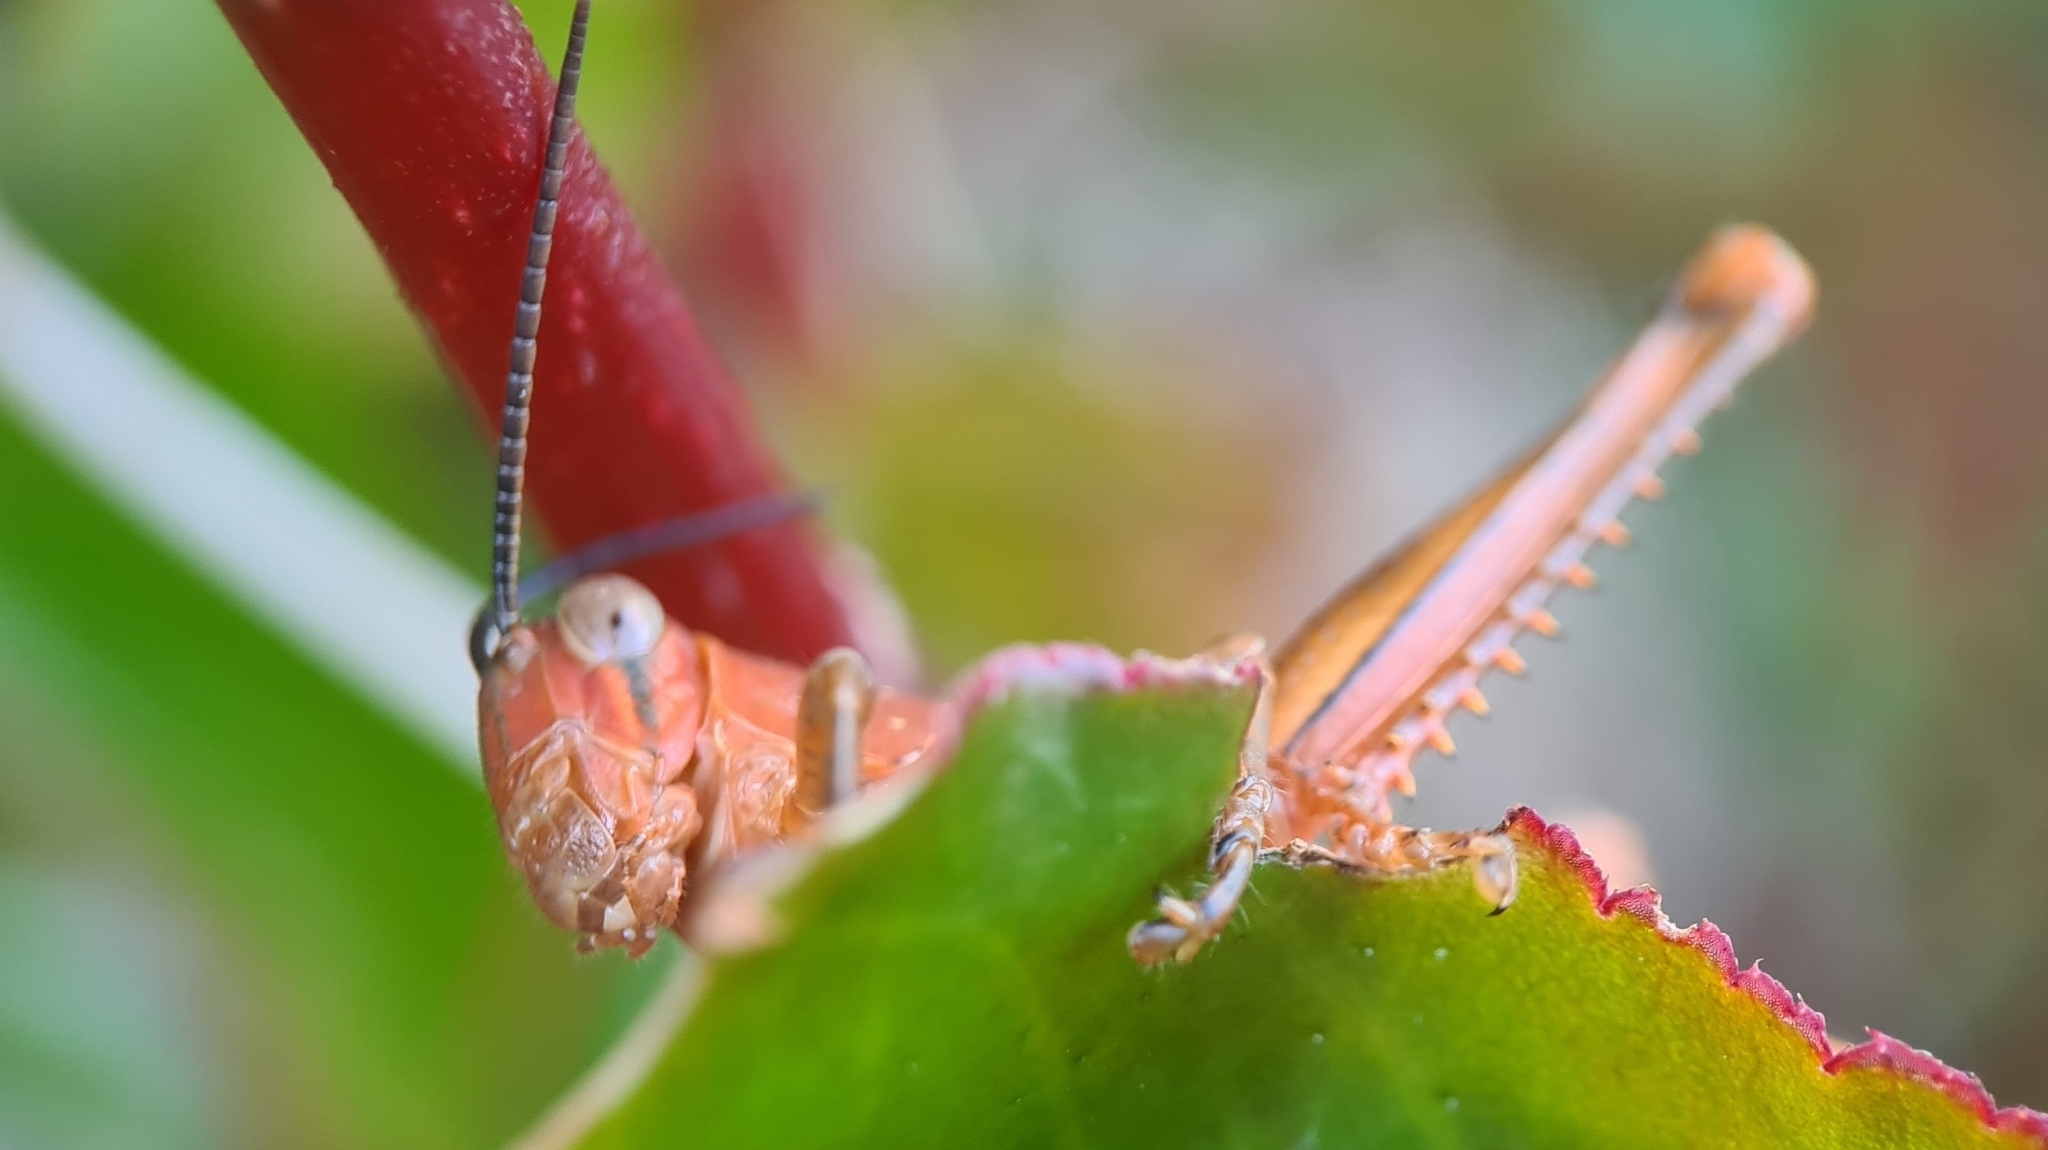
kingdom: Animalia
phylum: Arthropoda
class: Insecta
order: Orthoptera
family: Acrididae
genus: Valanga
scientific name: Valanga irregularis
